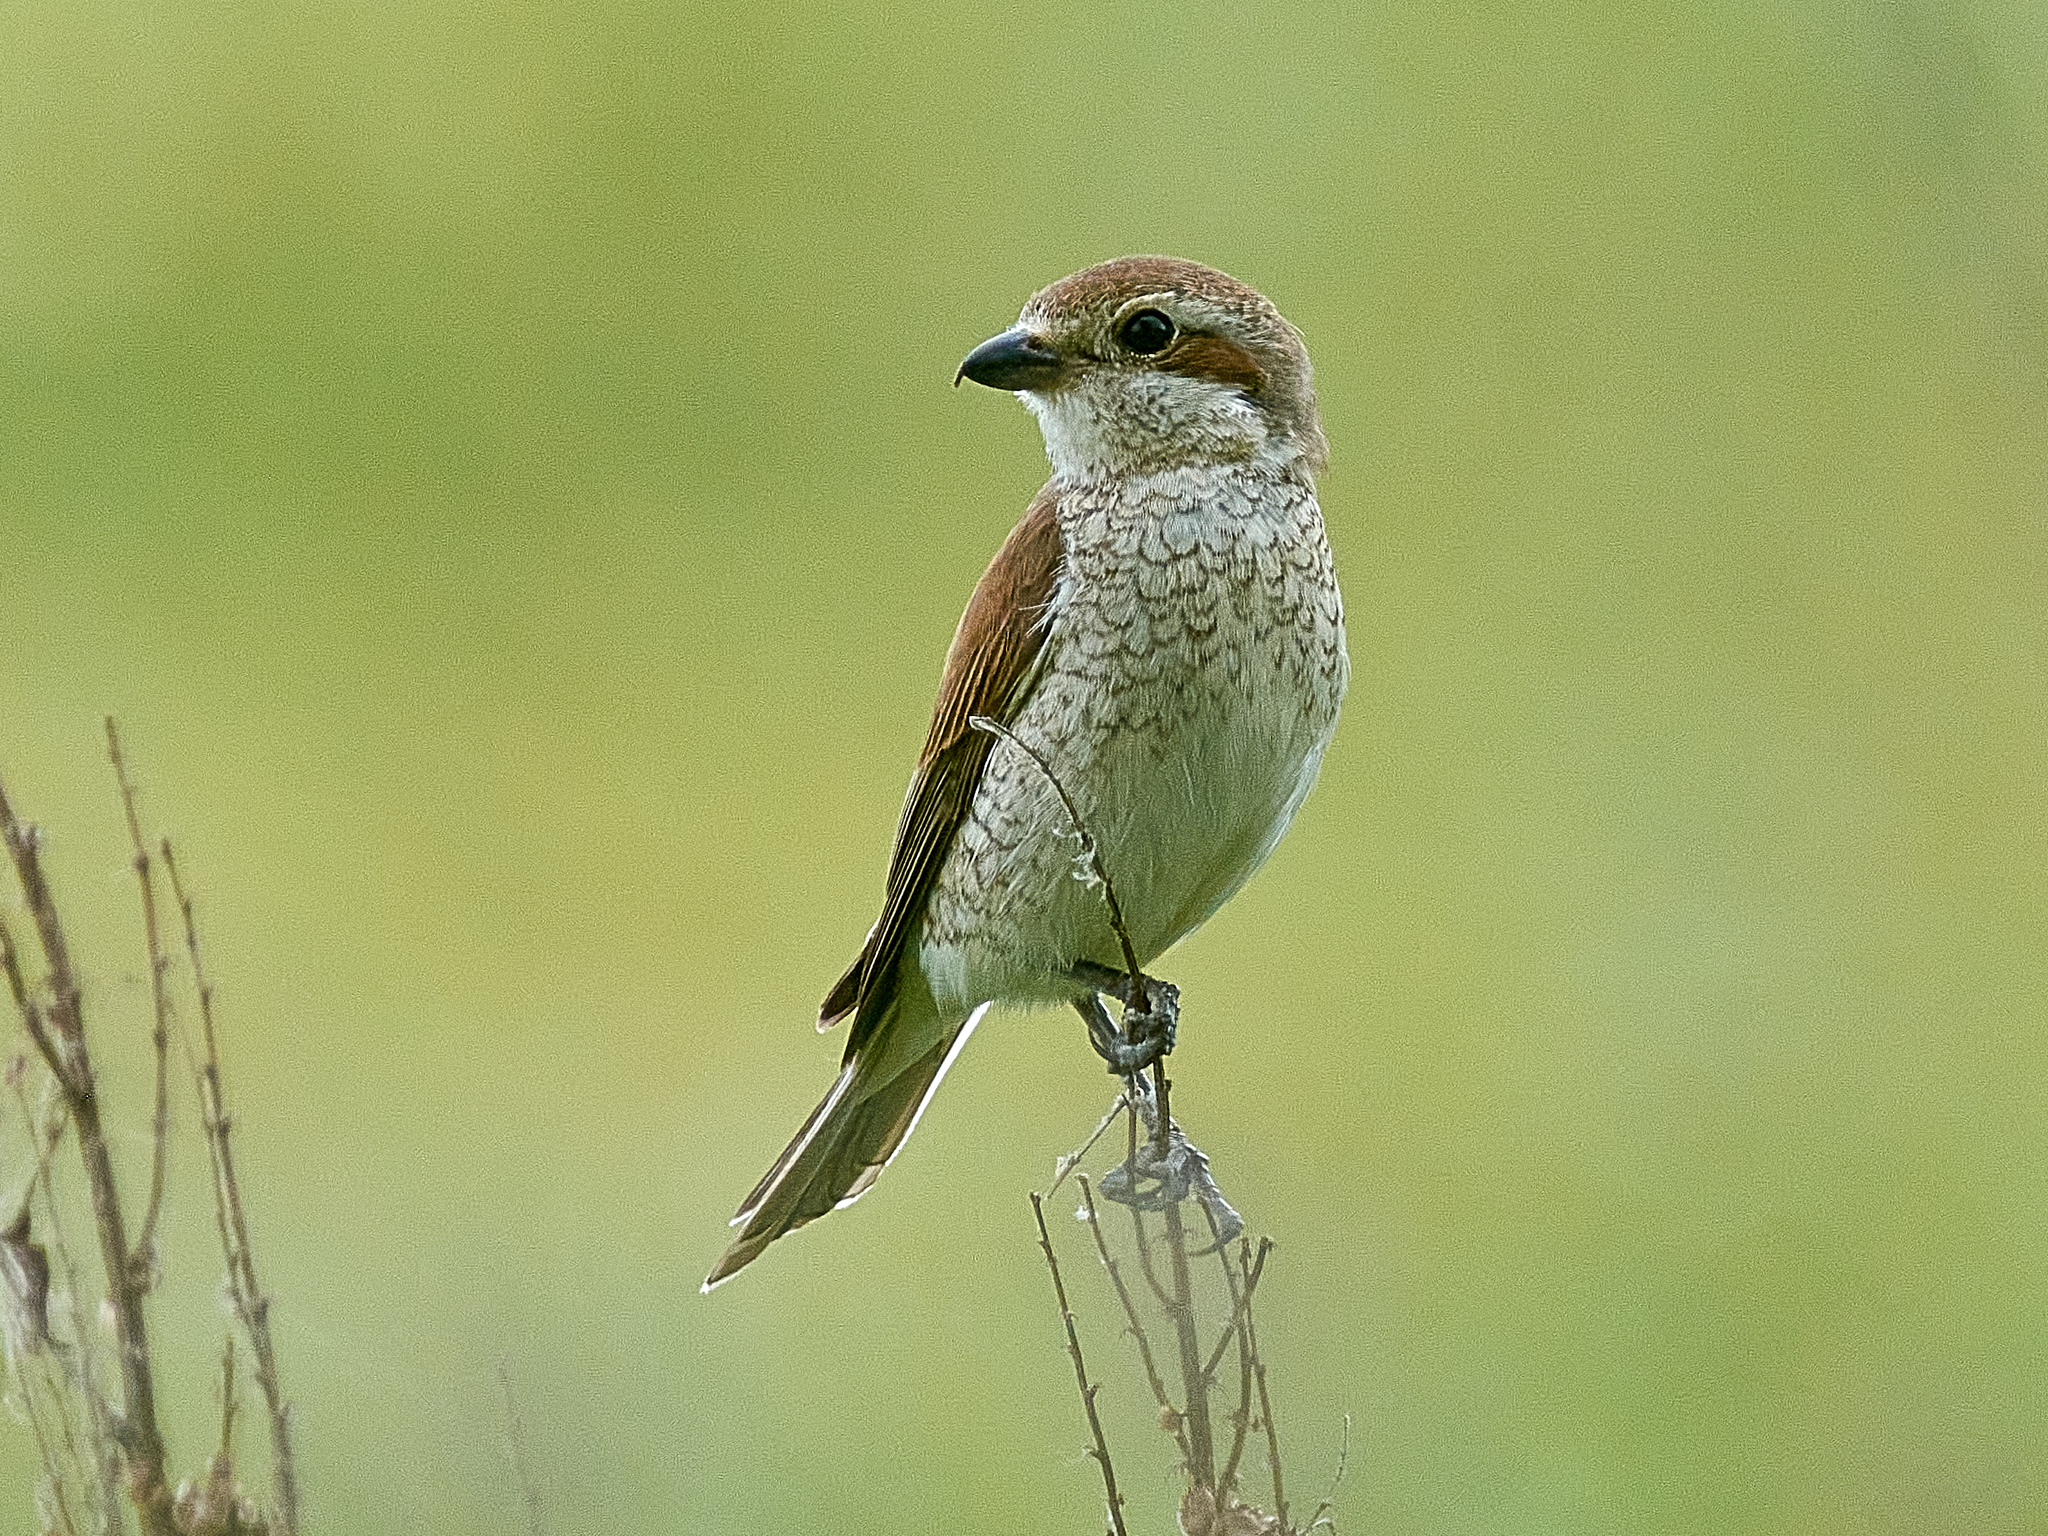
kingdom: Animalia
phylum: Chordata
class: Aves
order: Passeriformes
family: Laniidae
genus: Lanius
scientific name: Lanius collurio
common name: Red-backed shrike
